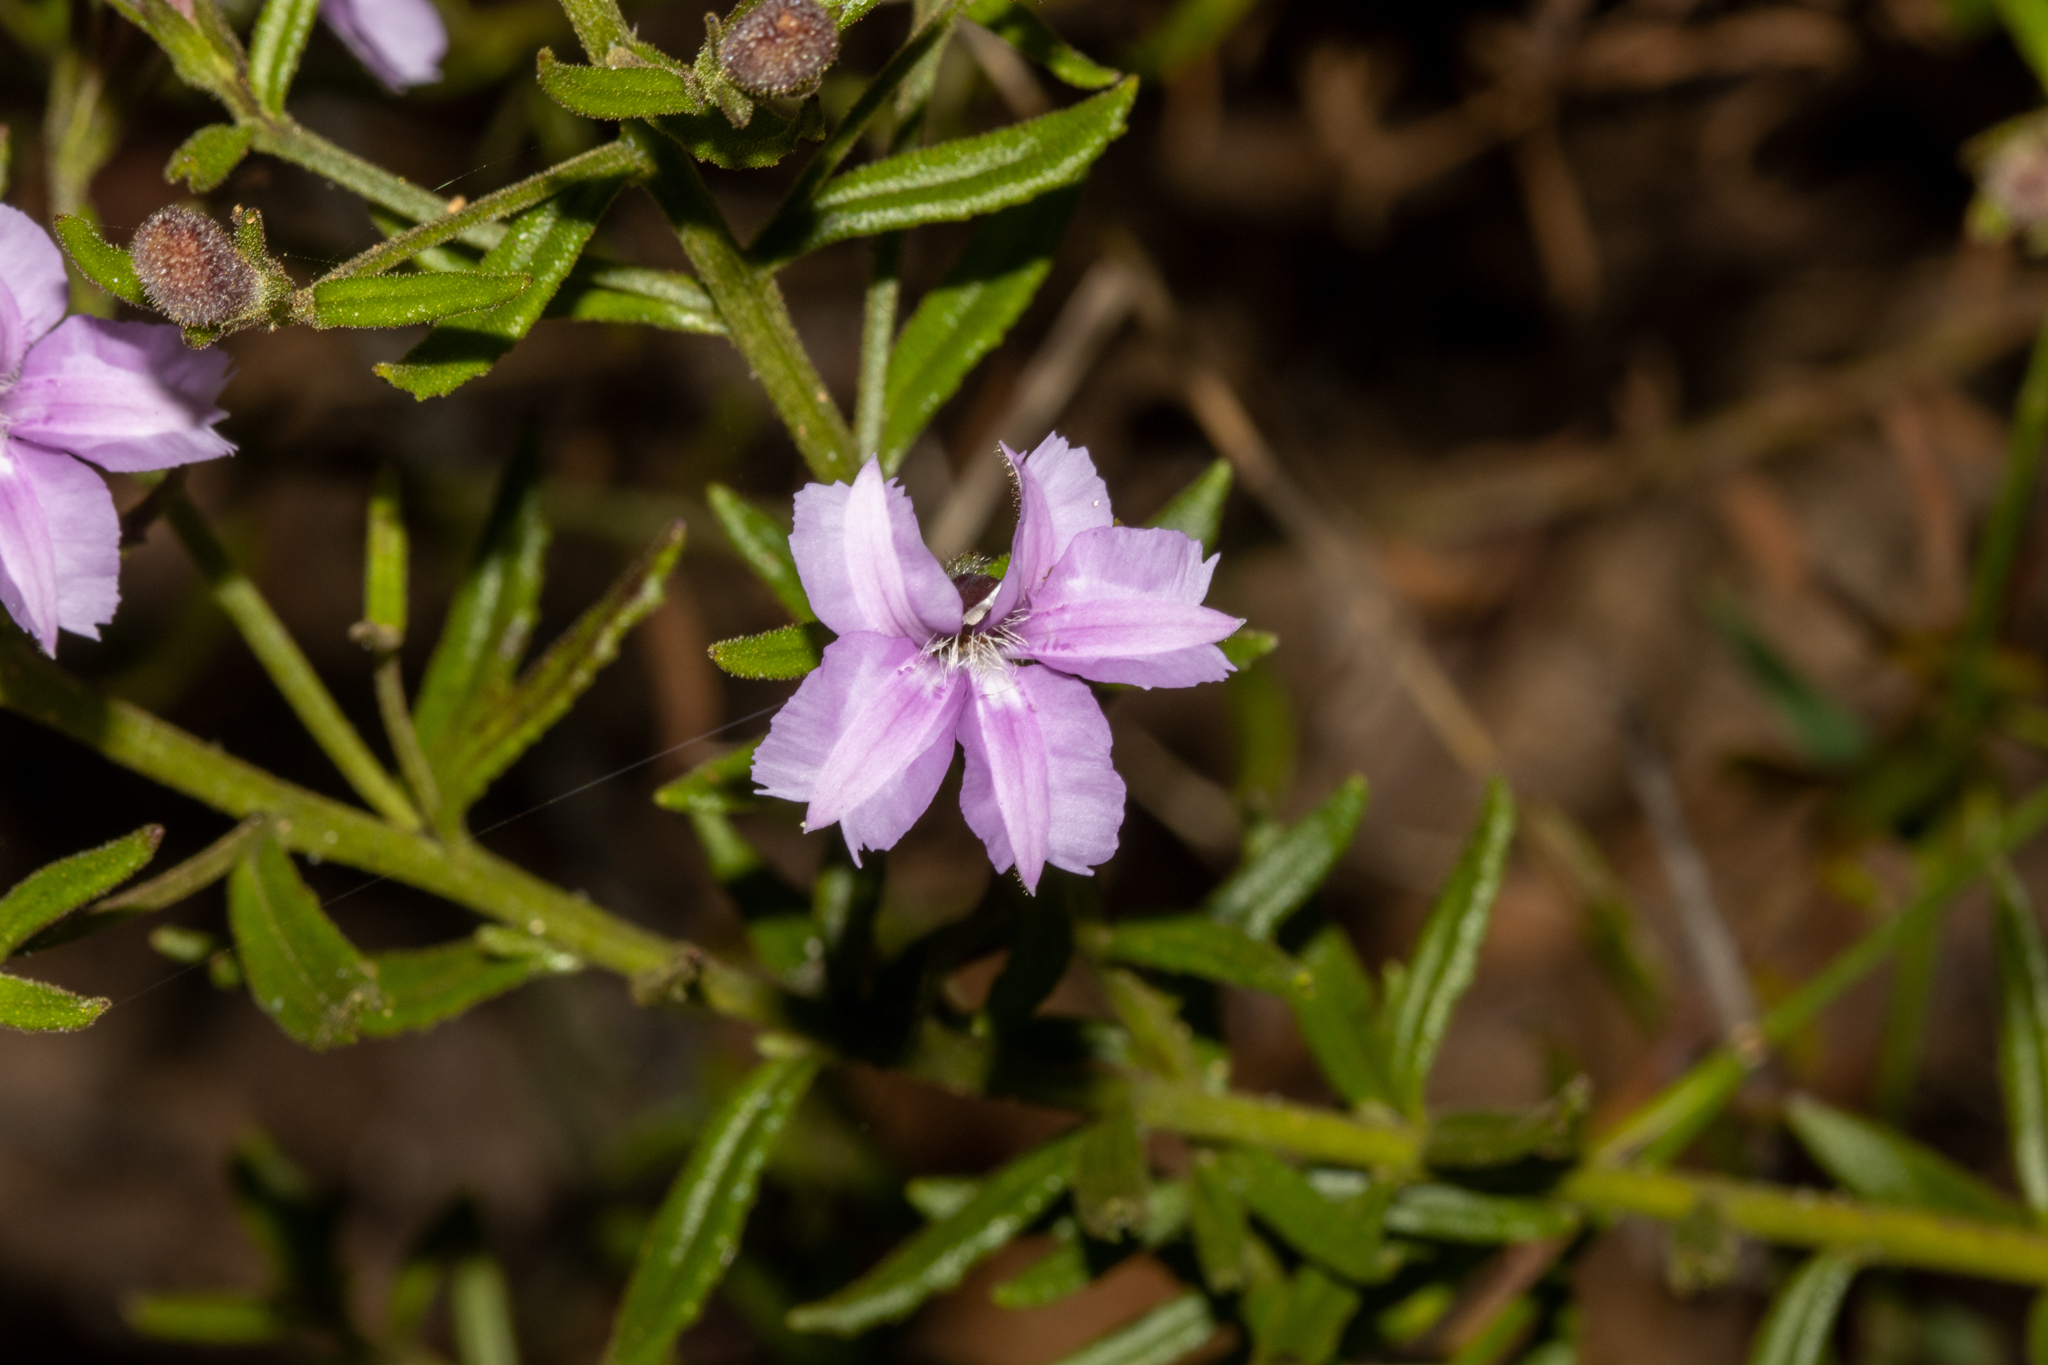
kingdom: Plantae
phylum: Tracheophyta
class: Magnoliopsida
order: Asterales
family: Goodeniaceae
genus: Goodenia
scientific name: Goodenia barbata
